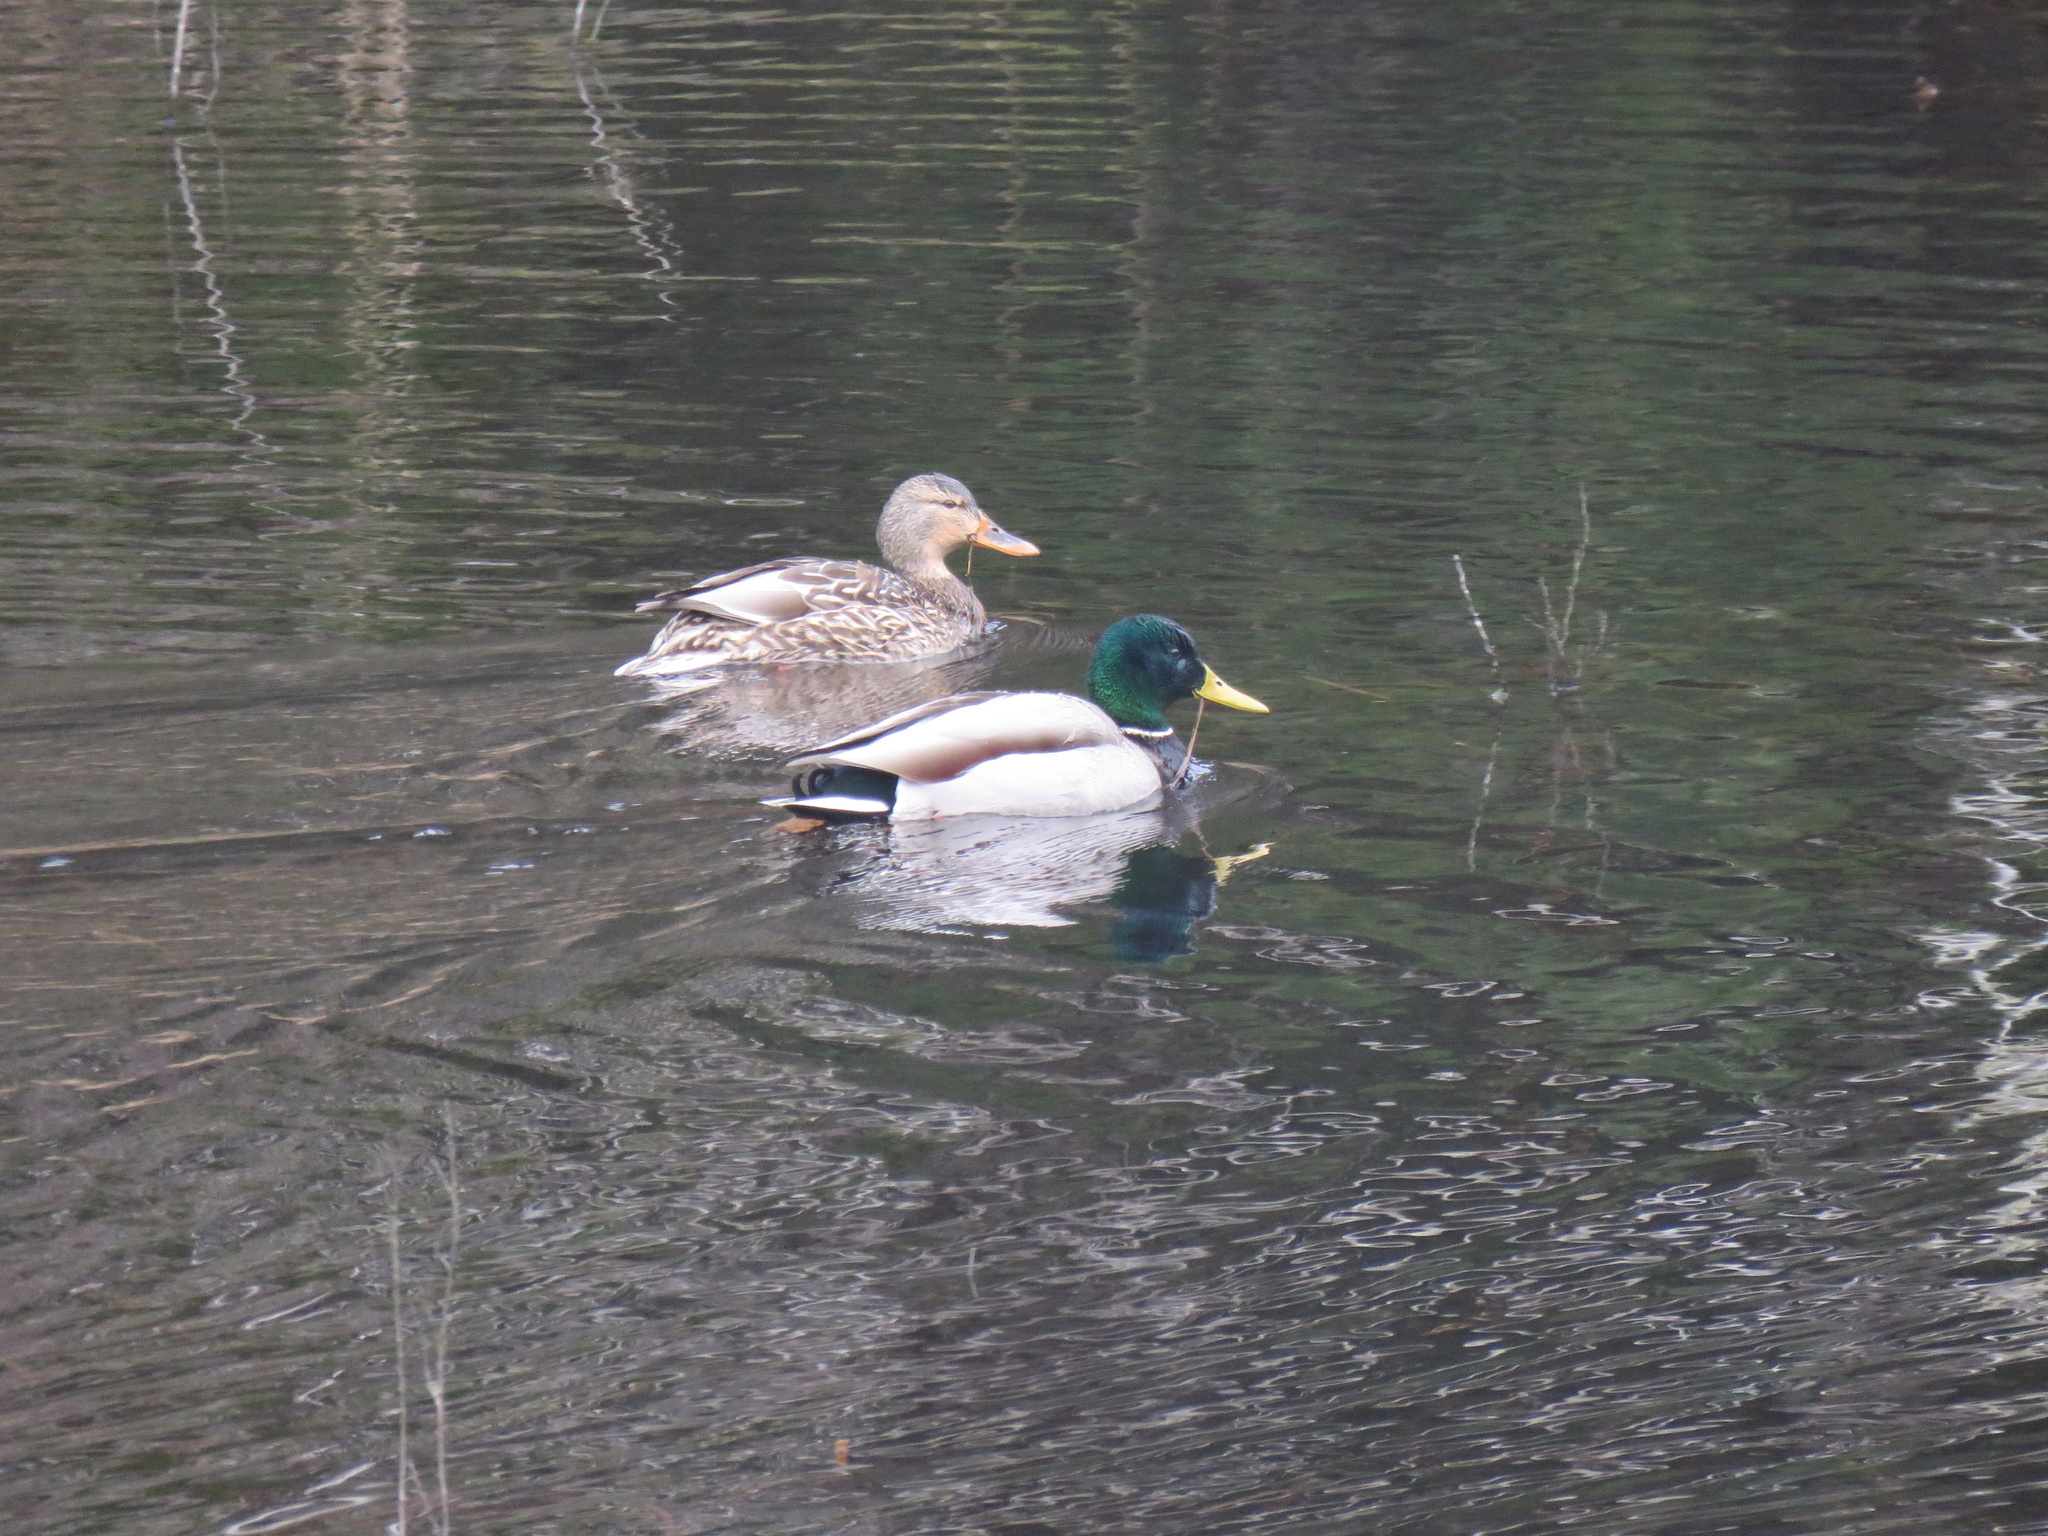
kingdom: Animalia
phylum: Chordata
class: Aves
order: Anseriformes
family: Anatidae
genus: Anas
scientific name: Anas platyrhynchos
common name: Mallard
